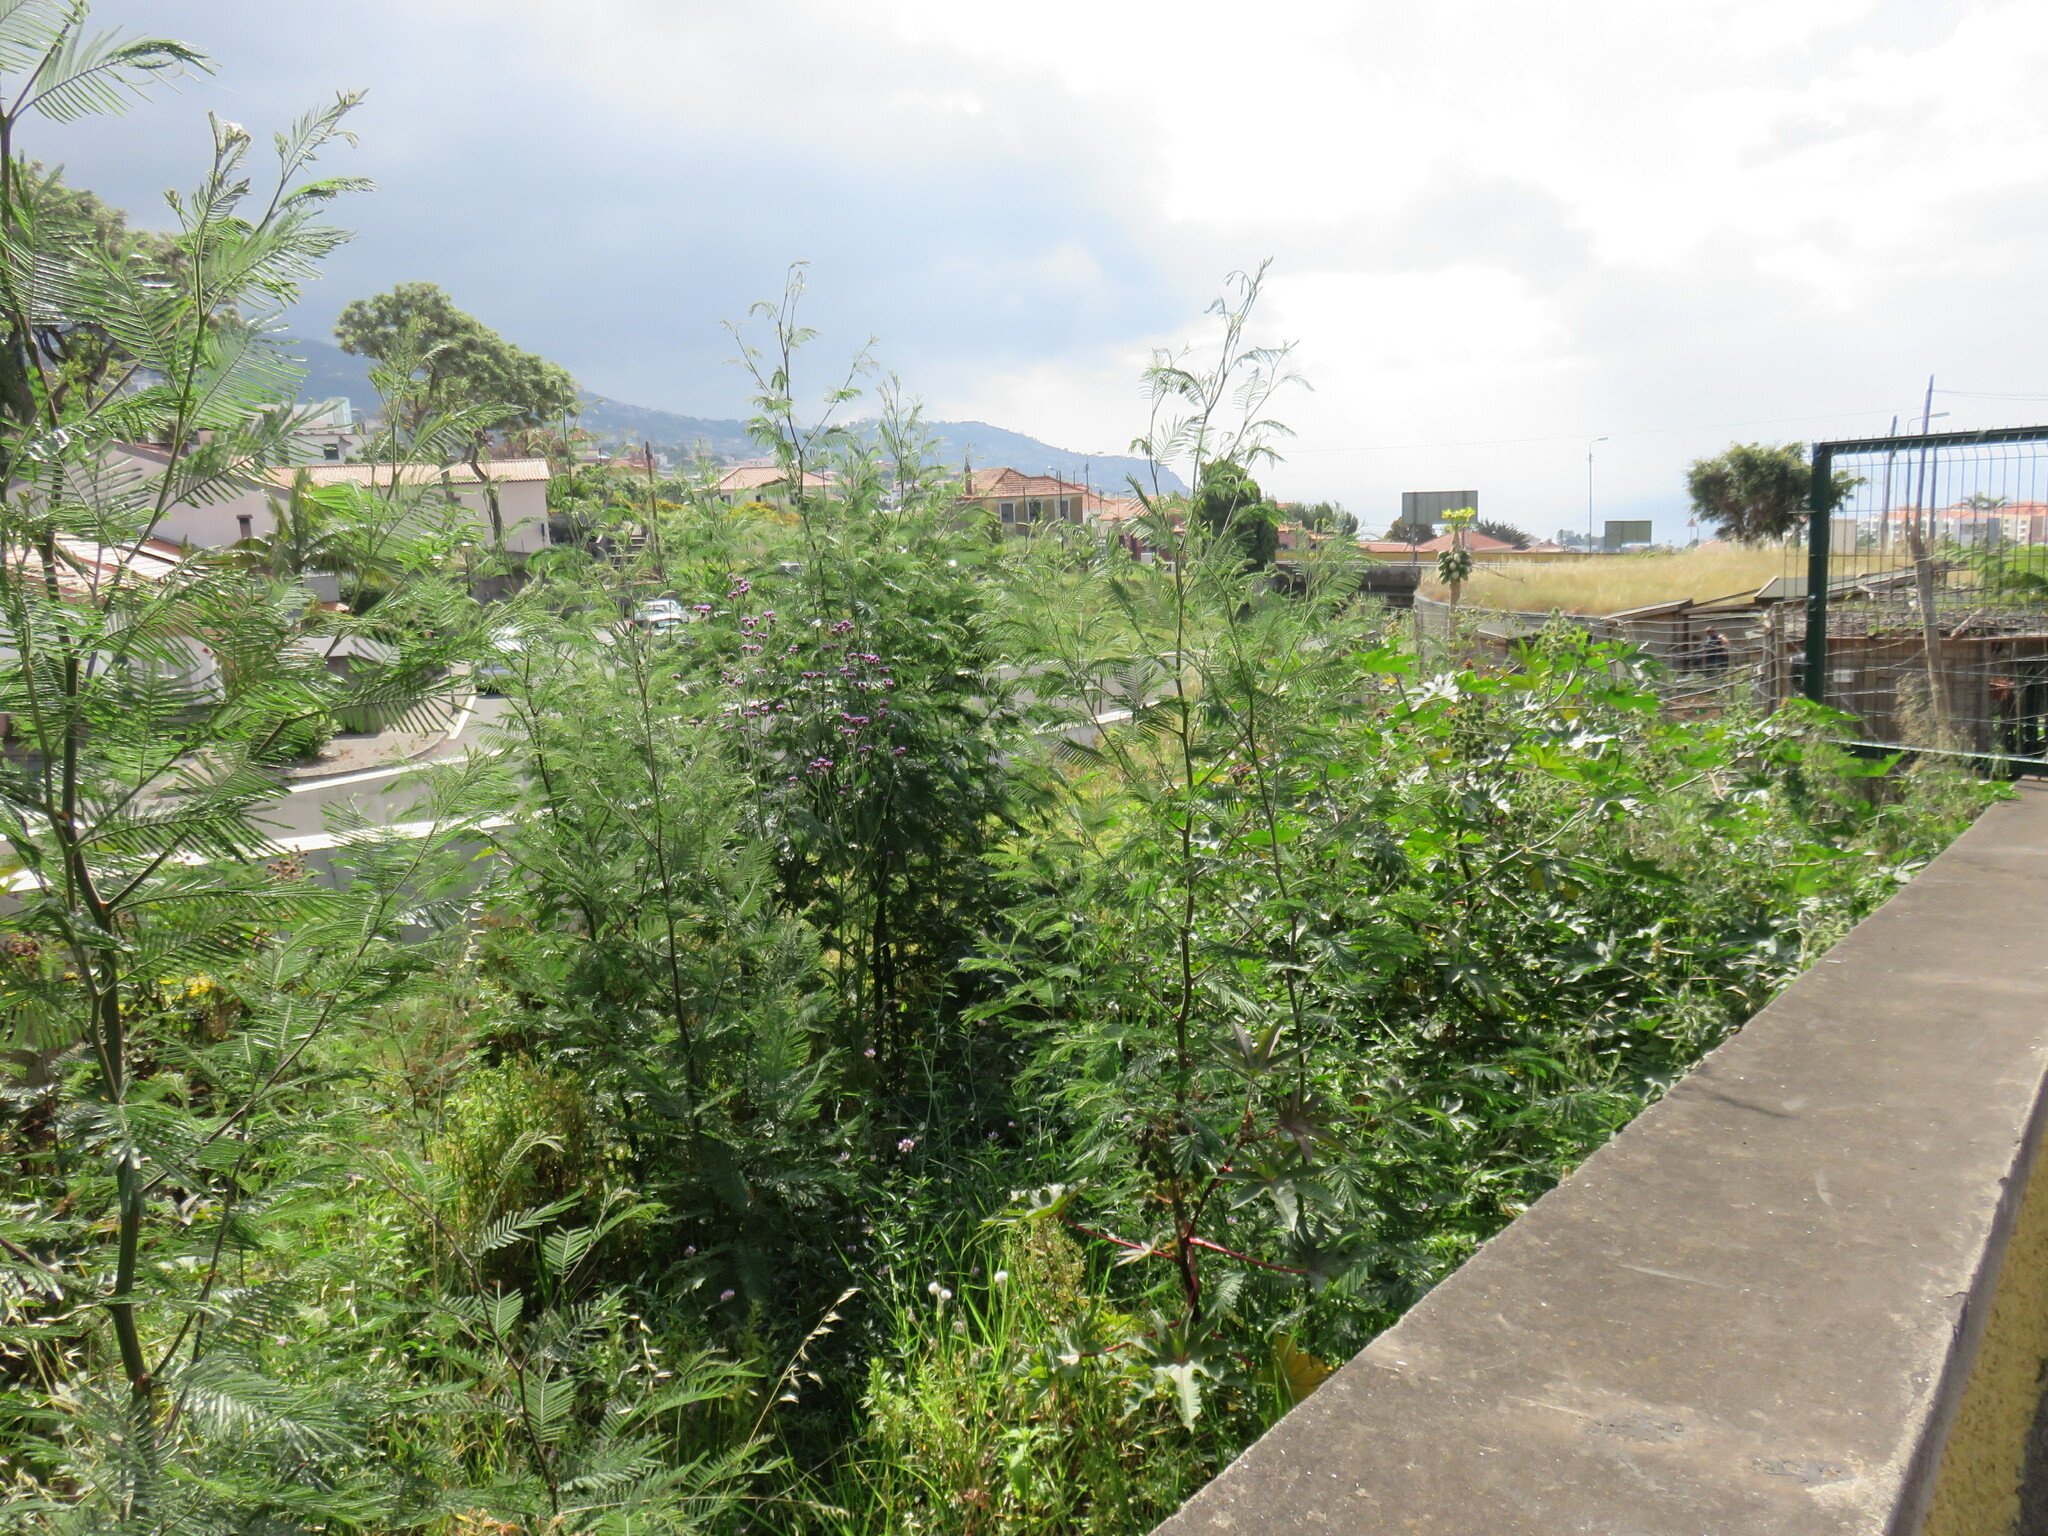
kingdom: Plantae
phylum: Tracheophyta
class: Magnoliopsida
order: Fabales
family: Fabaceae
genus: Acacia
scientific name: Acacia dealbata
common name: Silver wattle
